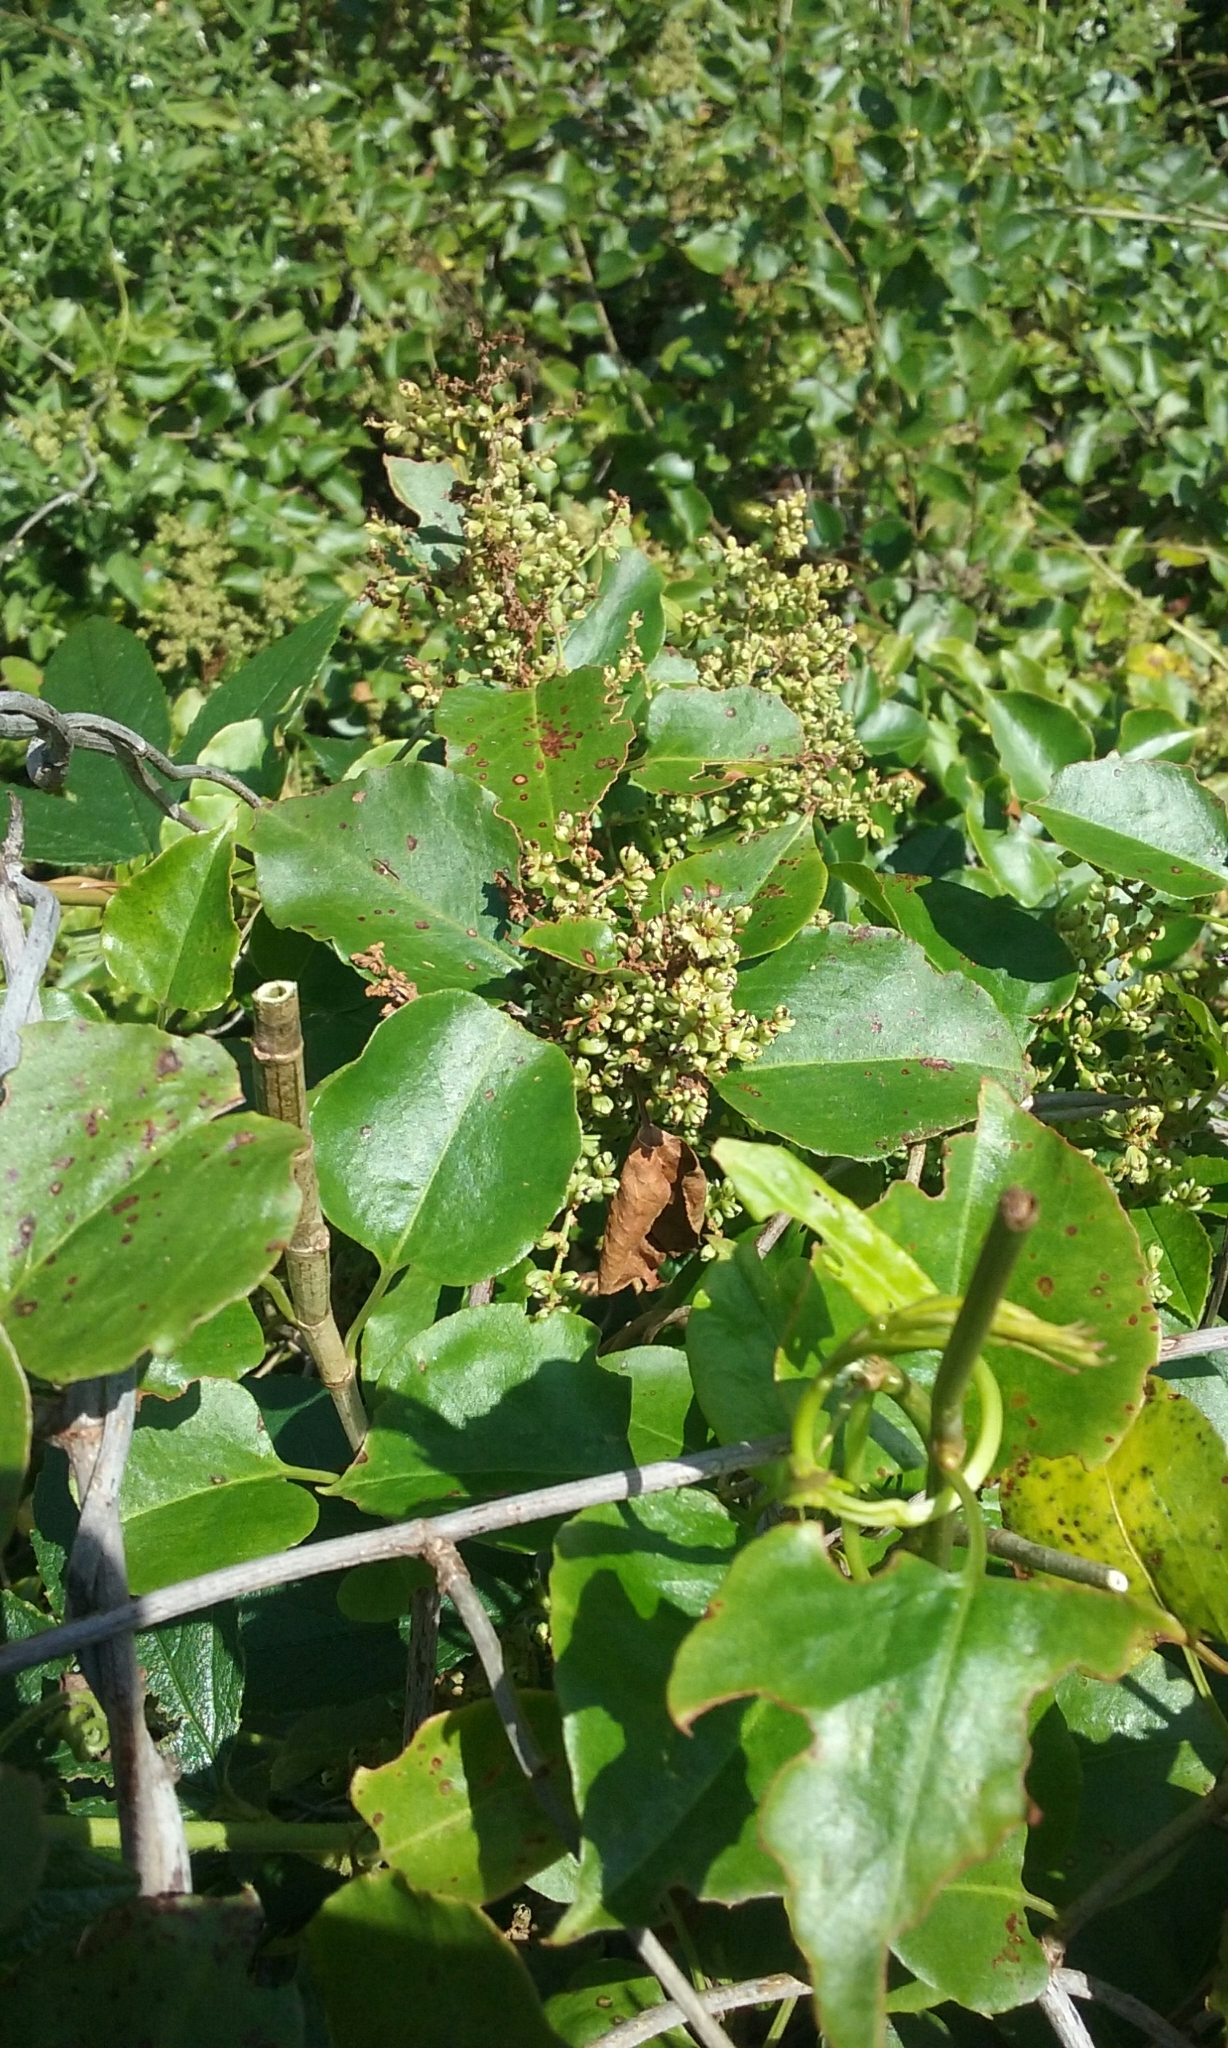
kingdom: Plantae
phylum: Tracheophyta
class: Magnoliopsida
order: Caryophyllales
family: Polygonaceae
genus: Muehlenbeckia
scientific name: Muehlenbeckia australis
